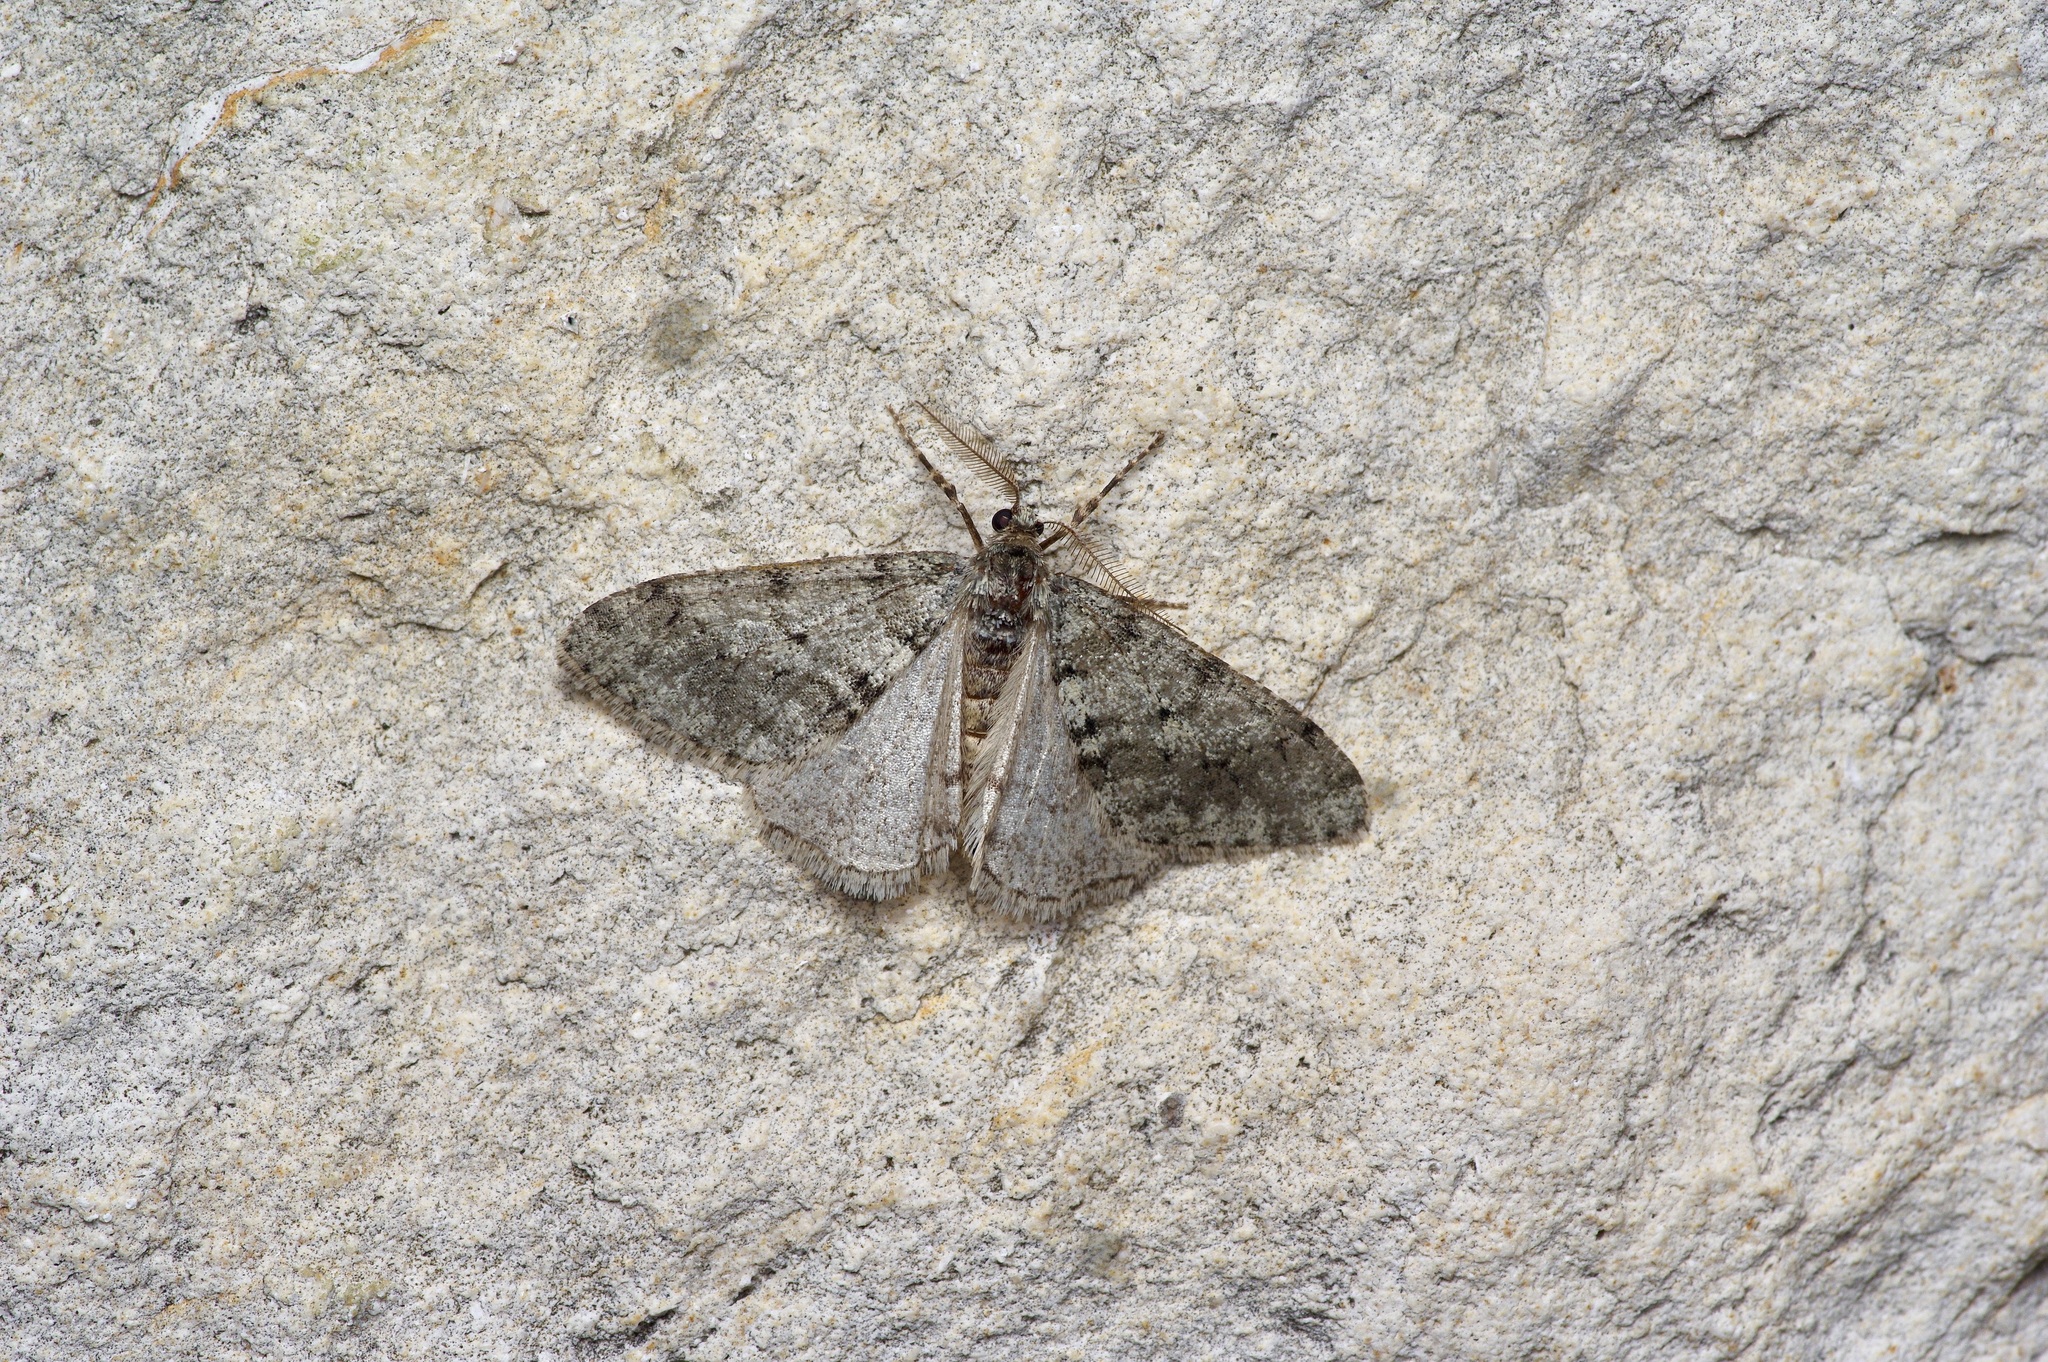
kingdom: Animalia
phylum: Arthropoda
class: Insecta
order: Lepidoptera
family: Geometridae
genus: Phigalia
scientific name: Phigalia strigataria
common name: Small phigalia
